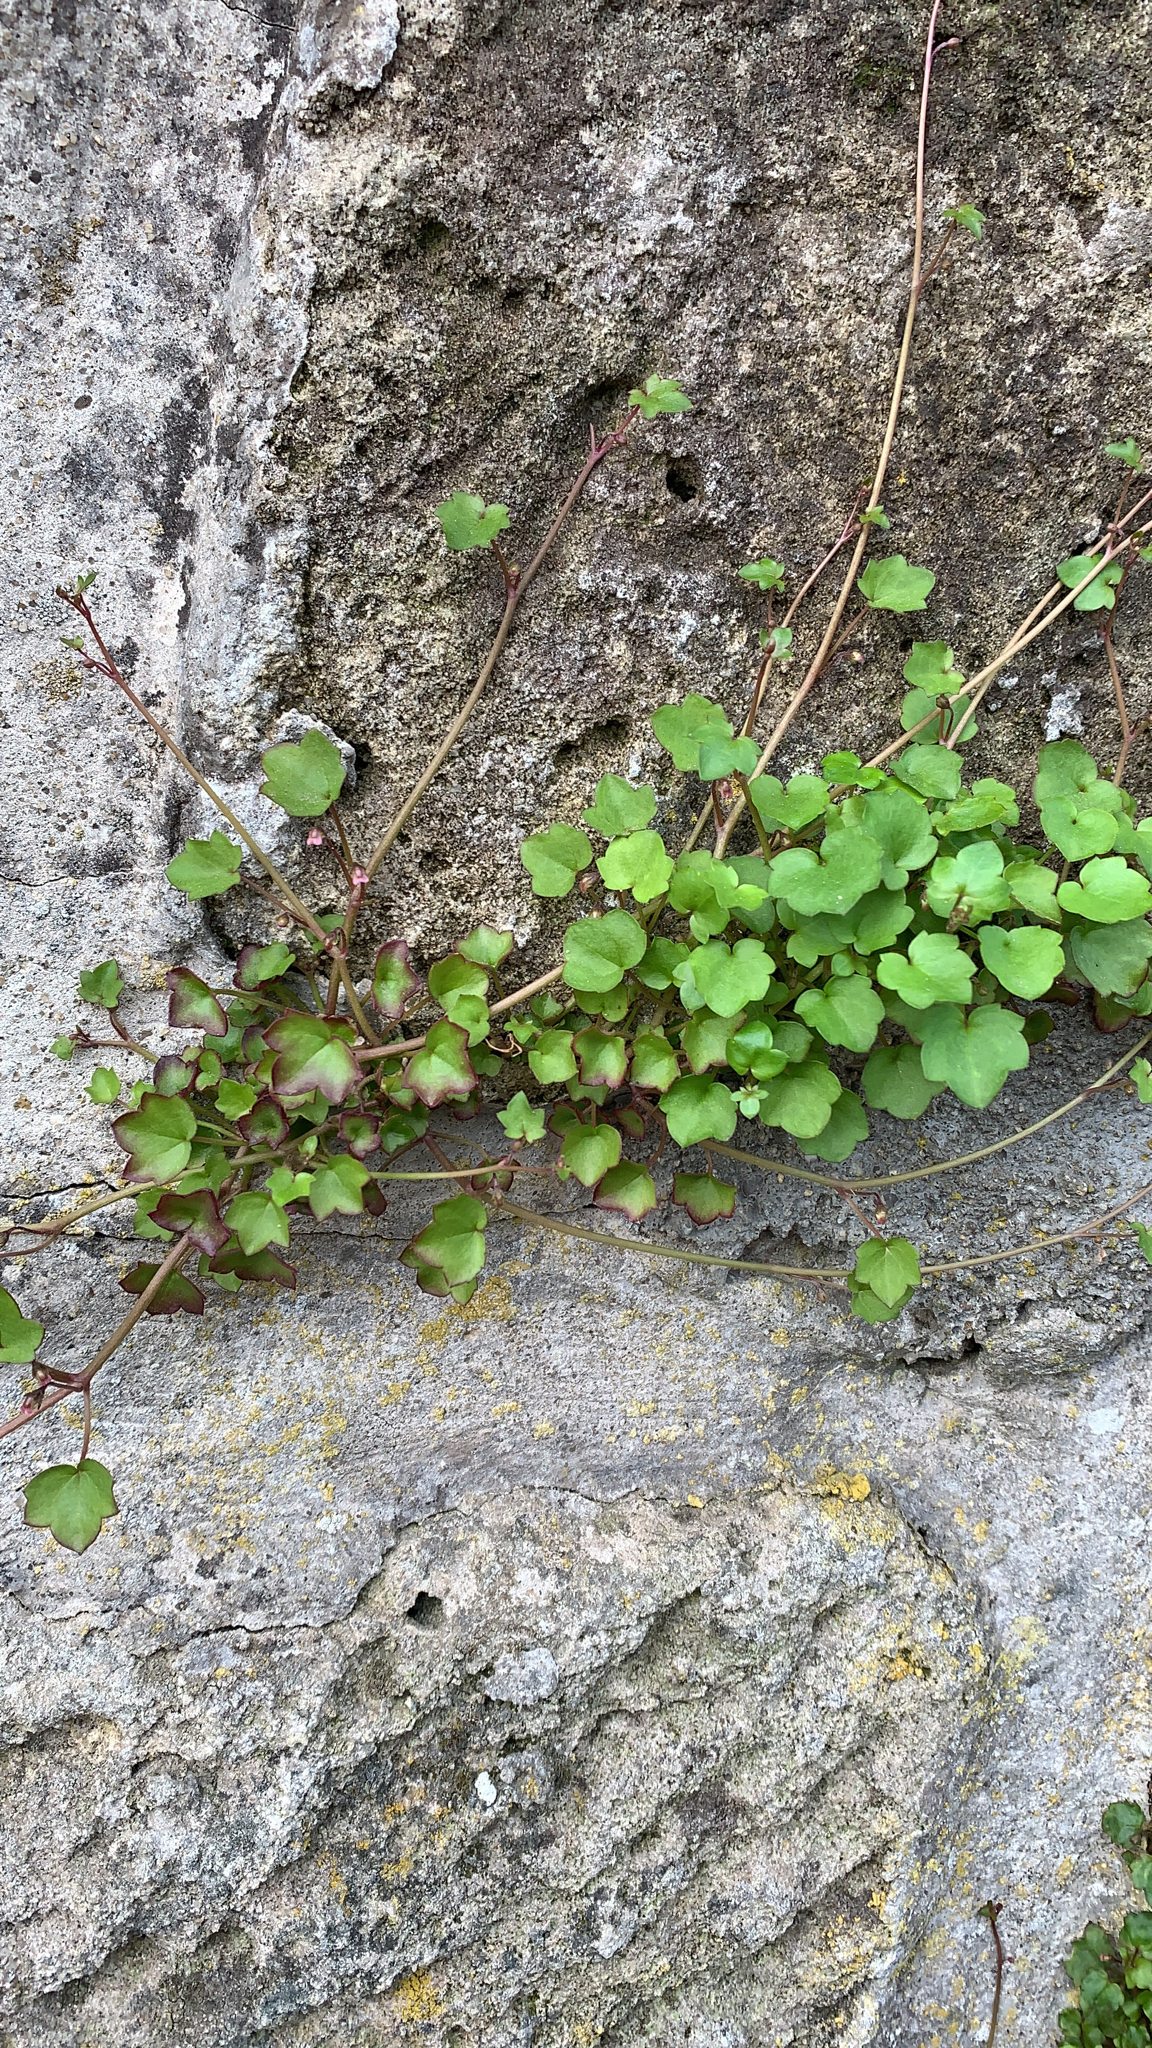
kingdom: Plantae
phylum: Tracheophyta
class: Magnoliopsida
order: Lamiales
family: Plantaginaceae
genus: Cymbalaria
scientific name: Cymbalaria muralis
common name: Ivy-leaved toadflax
